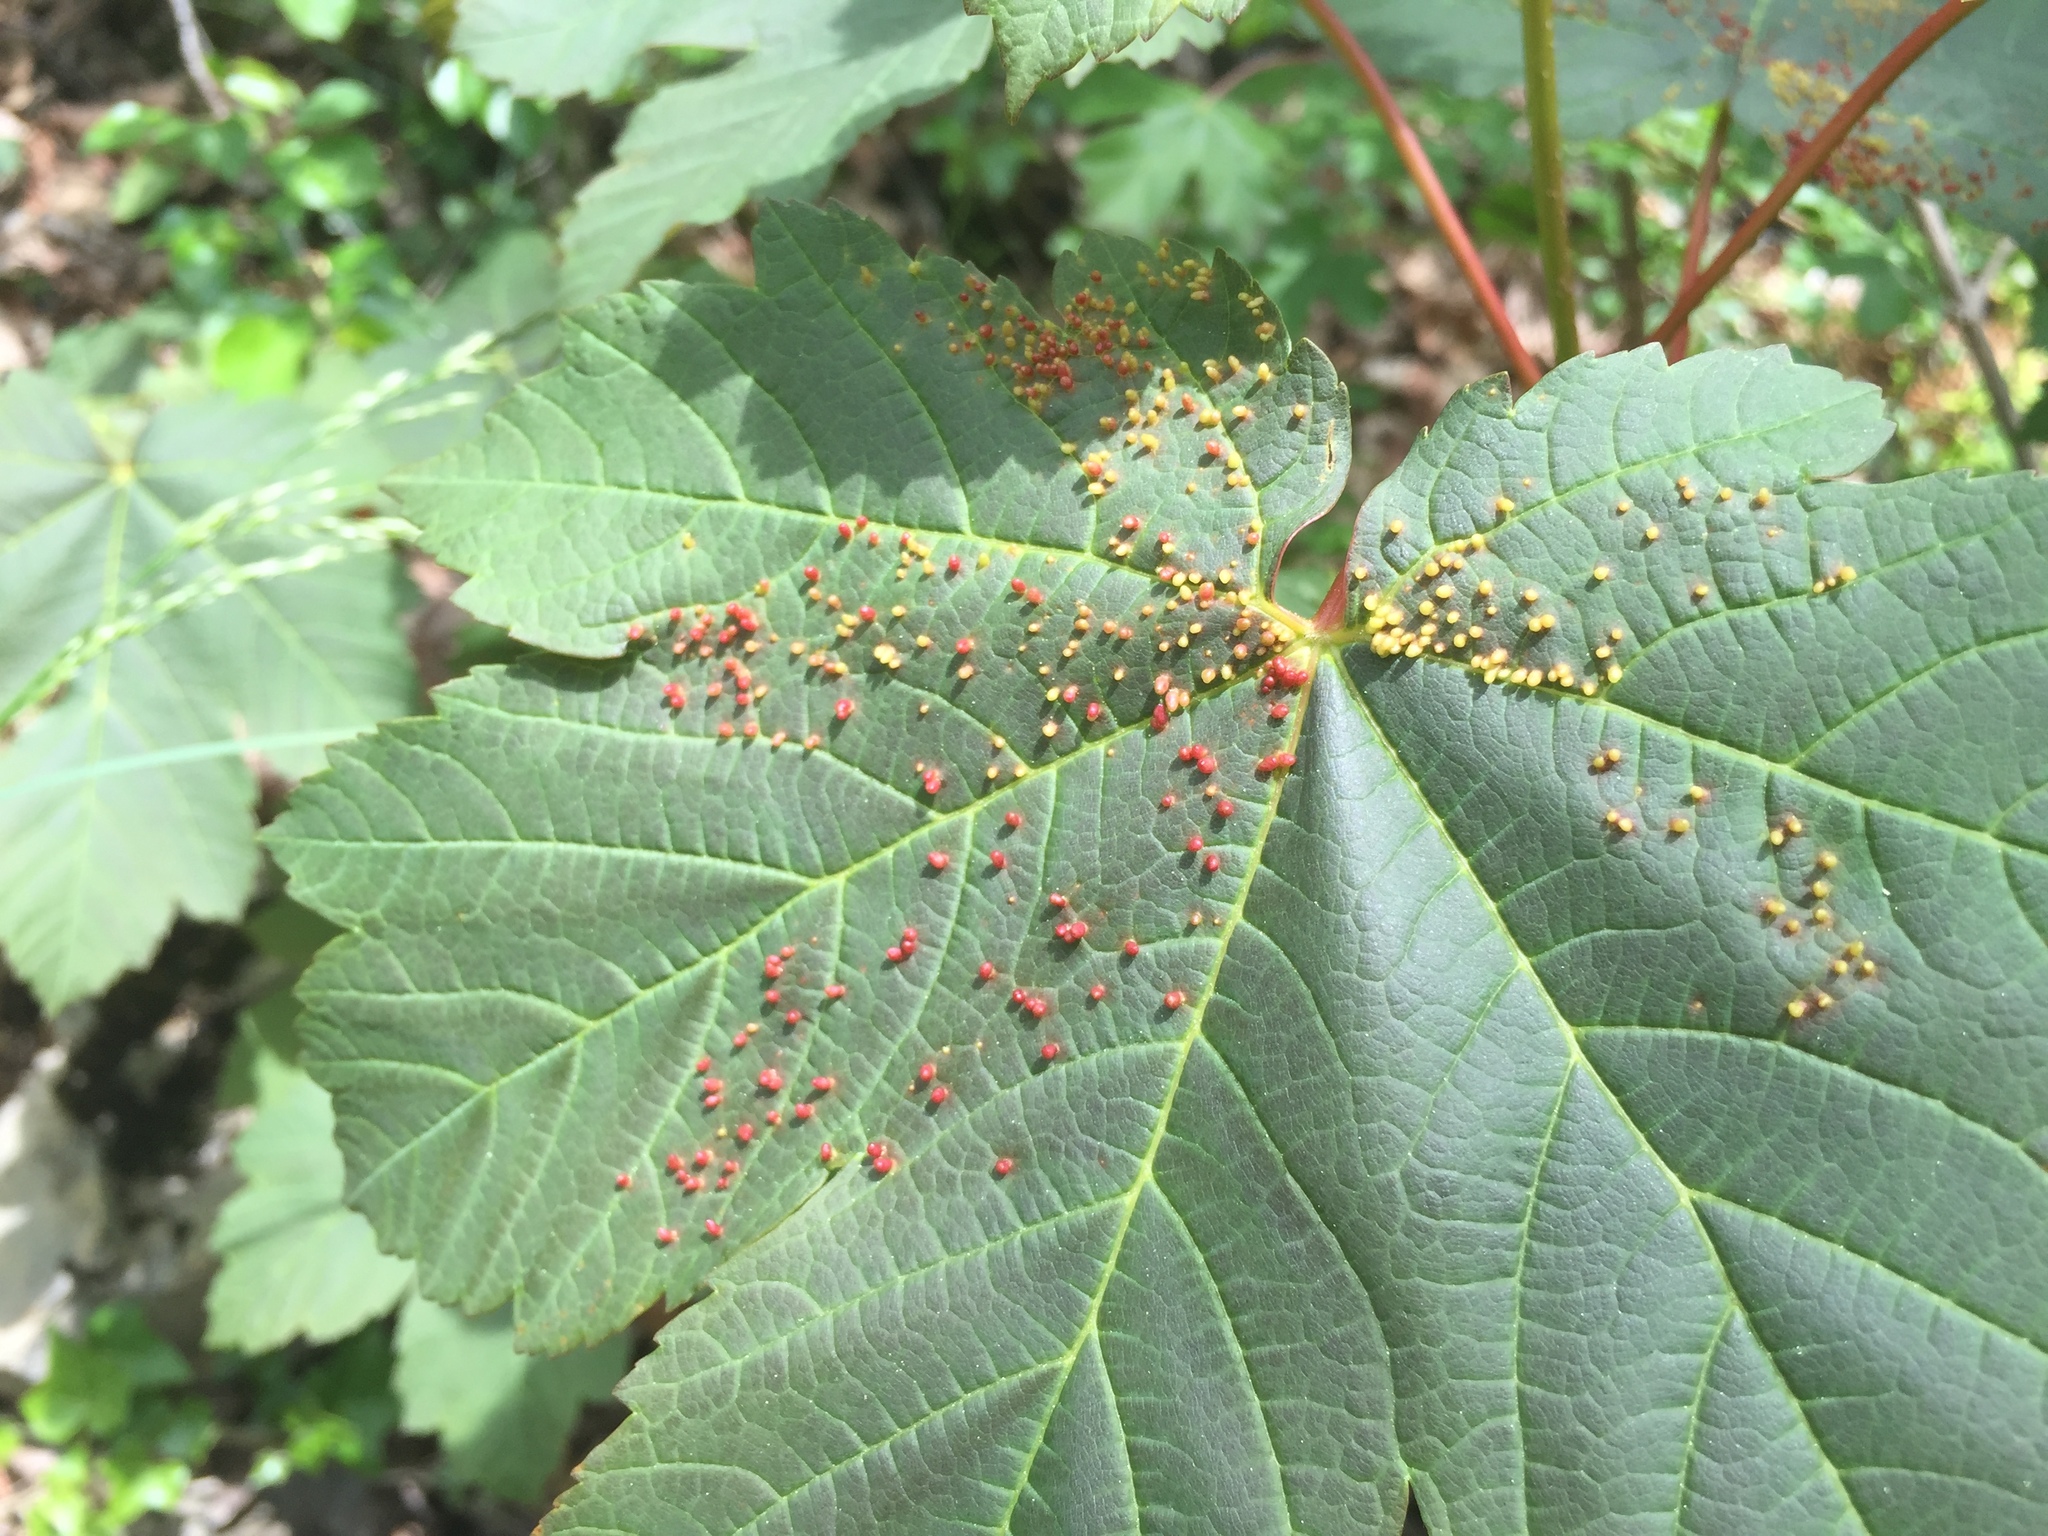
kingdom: Animalia
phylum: Arthropoda
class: Arachnida
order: Trombidiformes
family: Eriophyidae
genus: Aceria
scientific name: Aceria macrorhynchus
